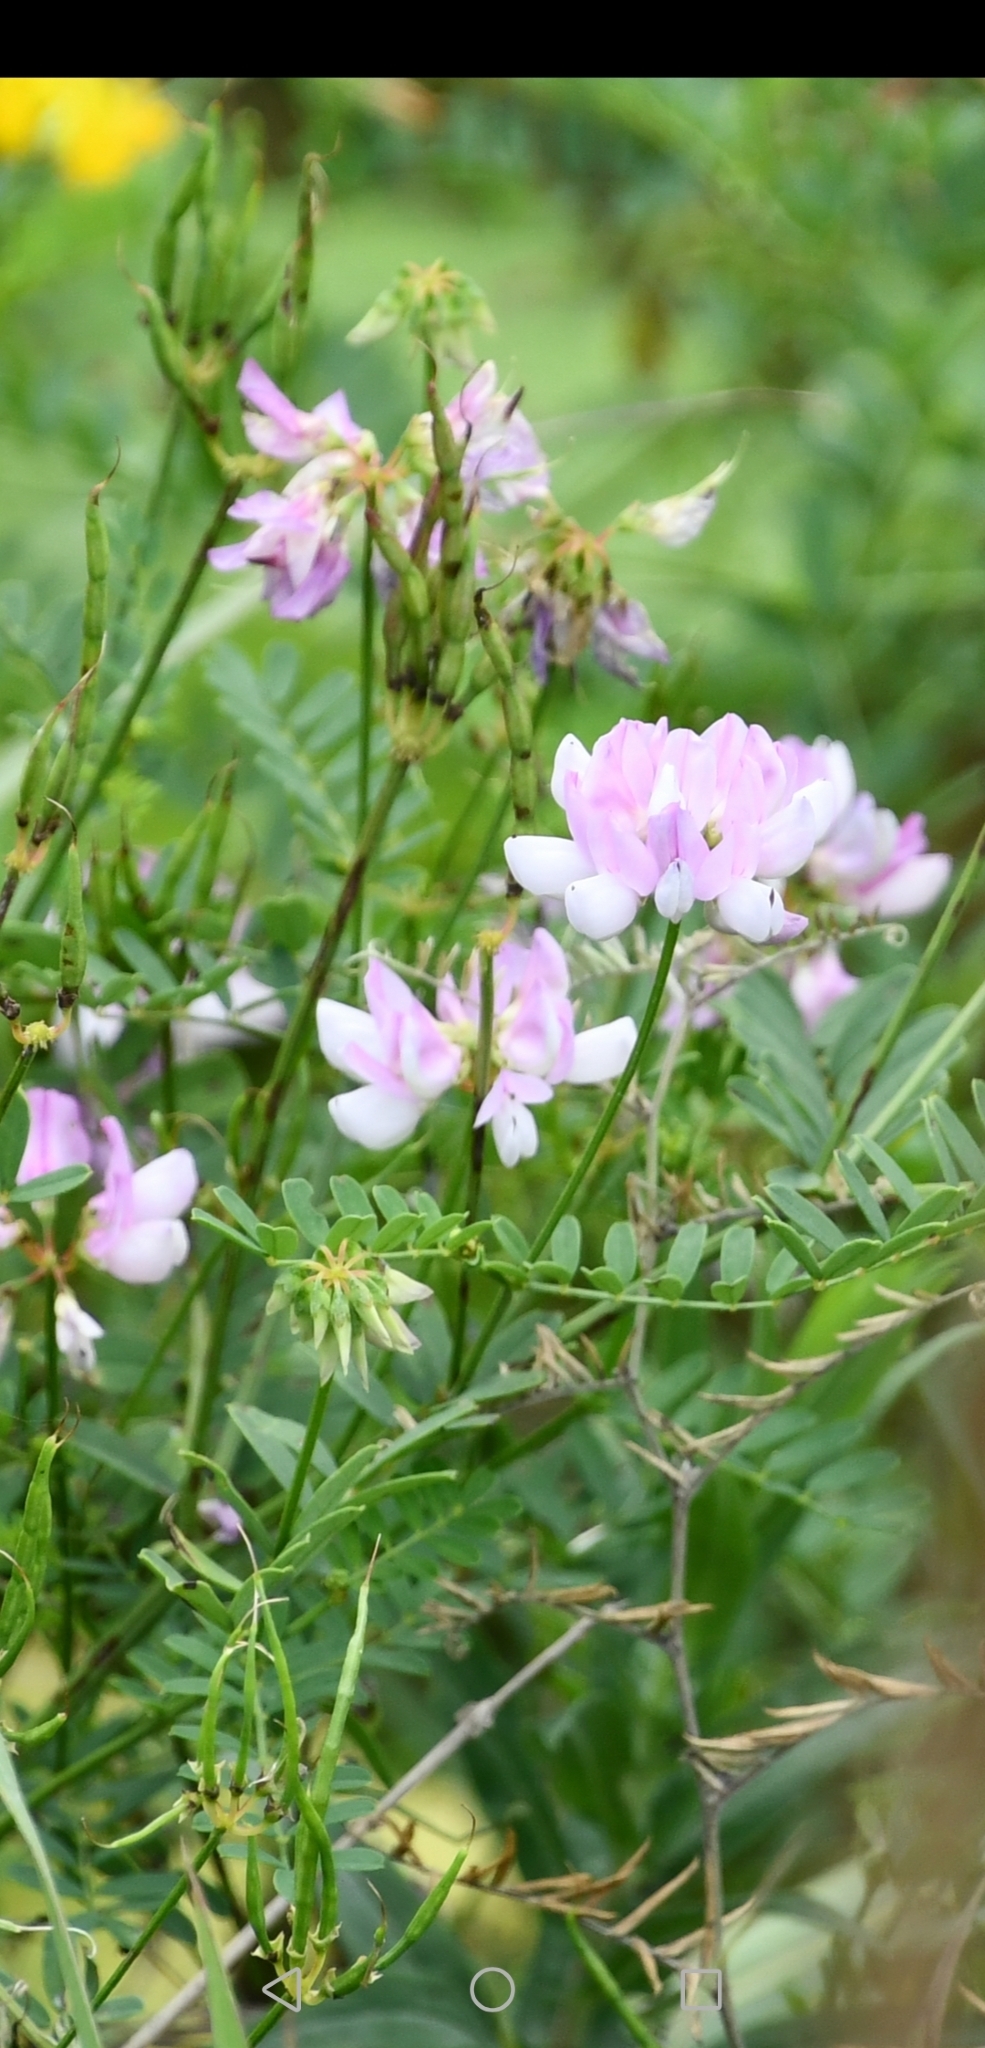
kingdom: Plantae
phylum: Tracheophyta
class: Magnoliopsida
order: Fabales
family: Fabaceae
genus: Coronilla
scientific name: Coronilla varia
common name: Crownvetch
